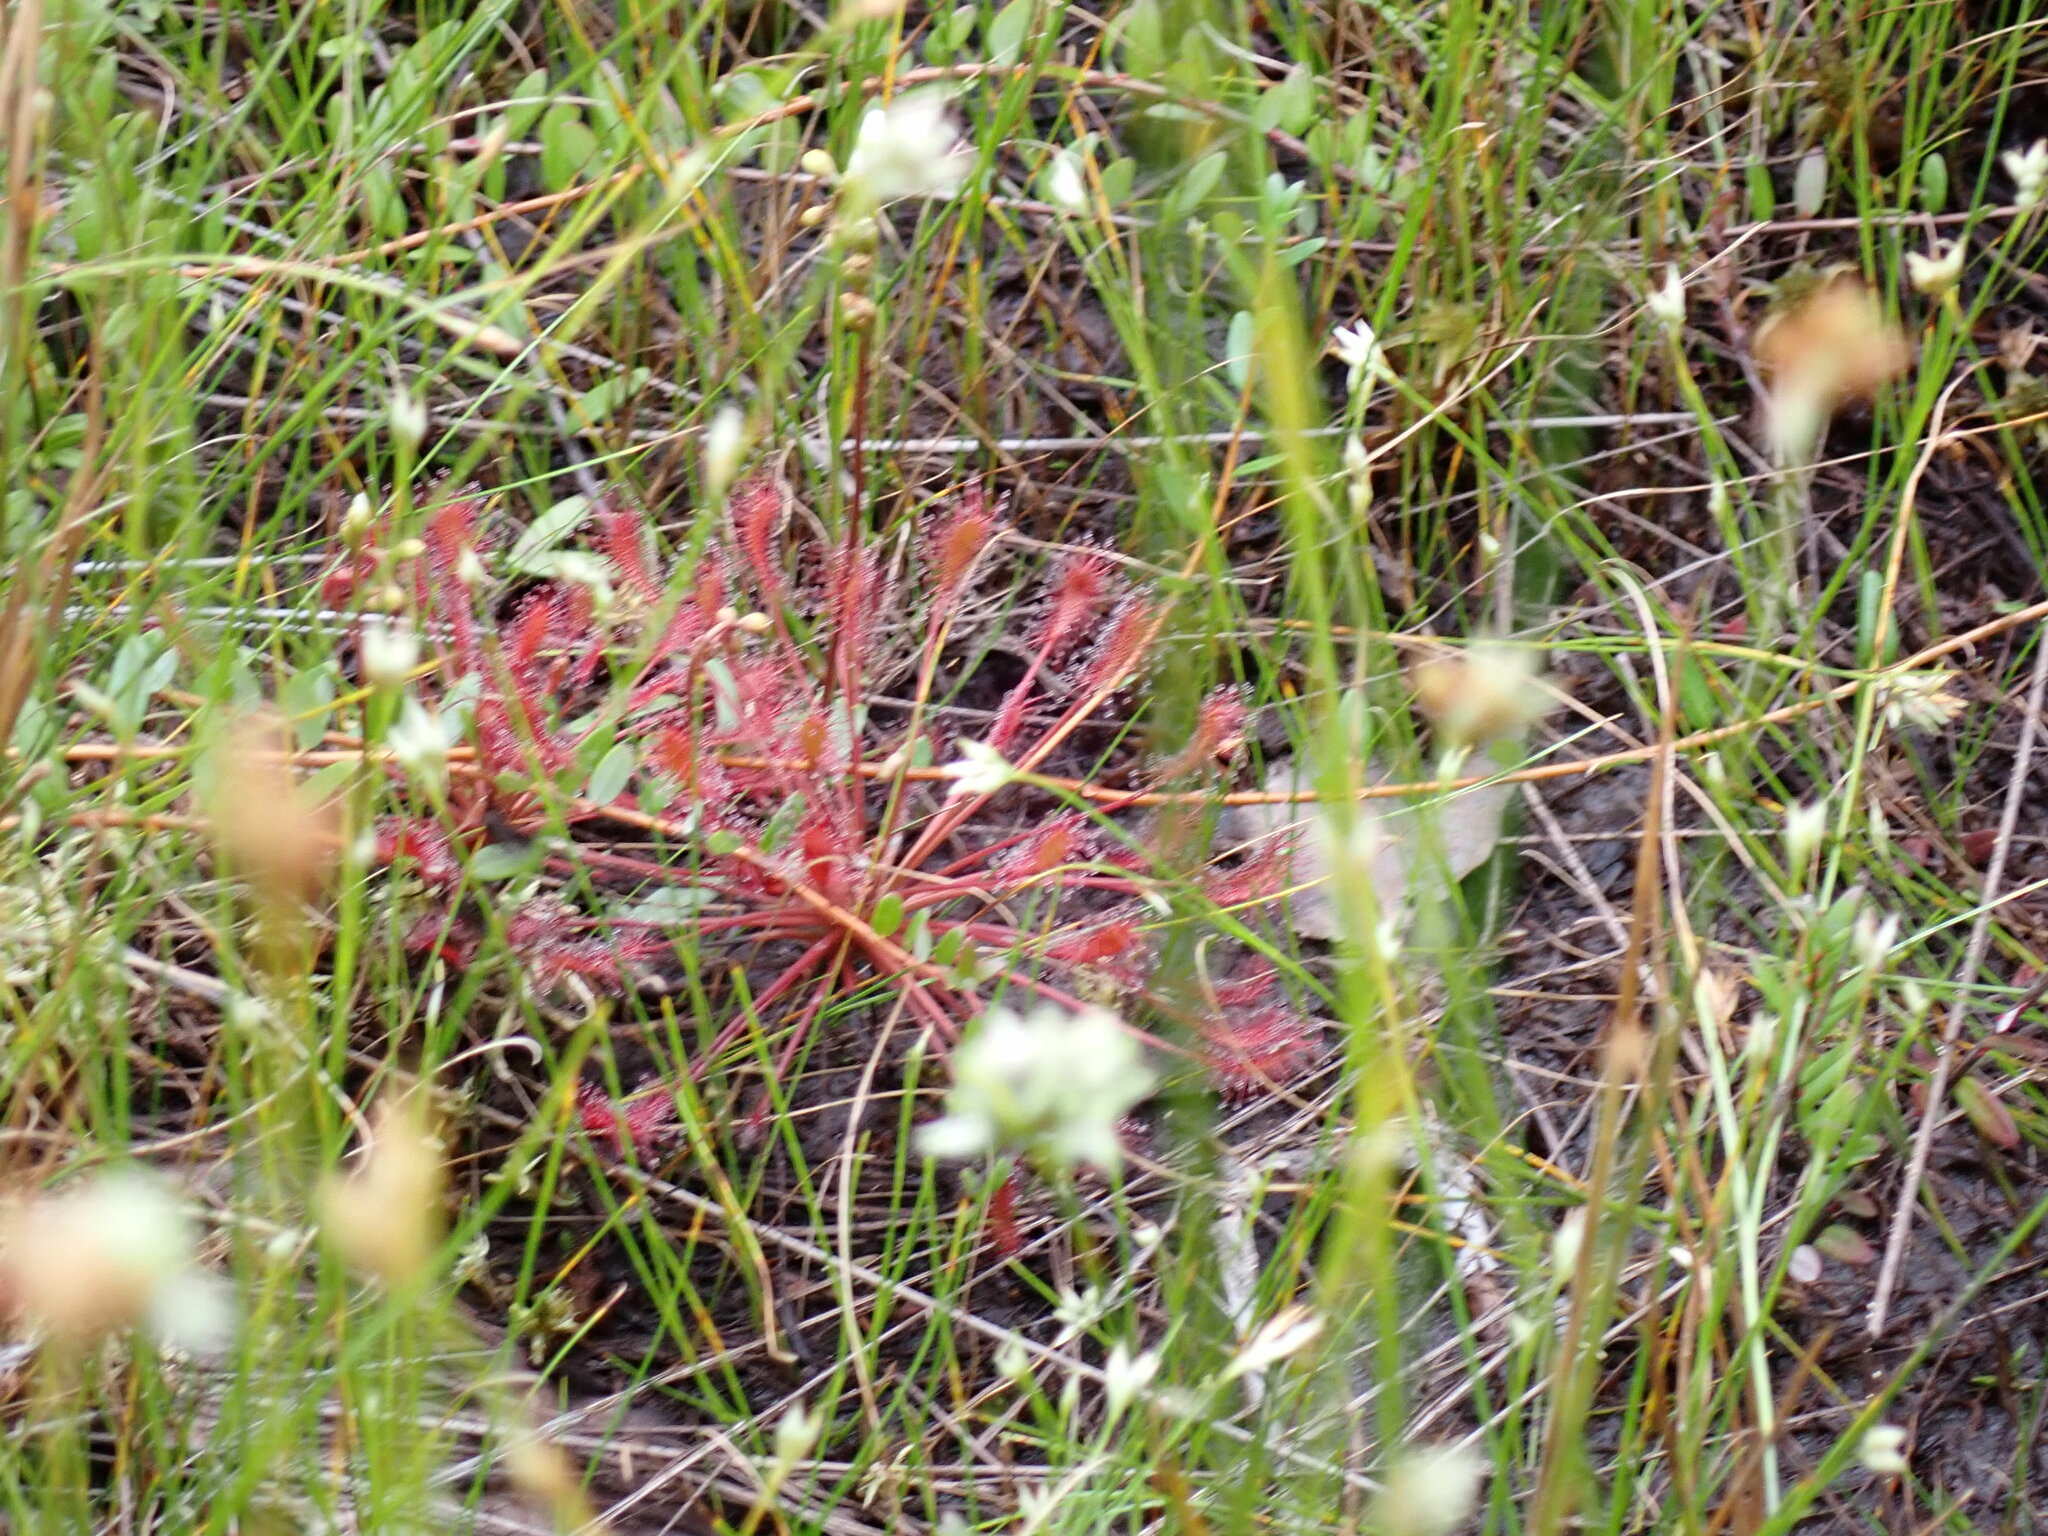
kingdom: Plantae
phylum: Tracheophyta
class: Magnoliopsida
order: Caryophyllales
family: Droseraceae
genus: Drosera
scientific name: Drosera intermedia
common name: Oblong-leaved sundew
